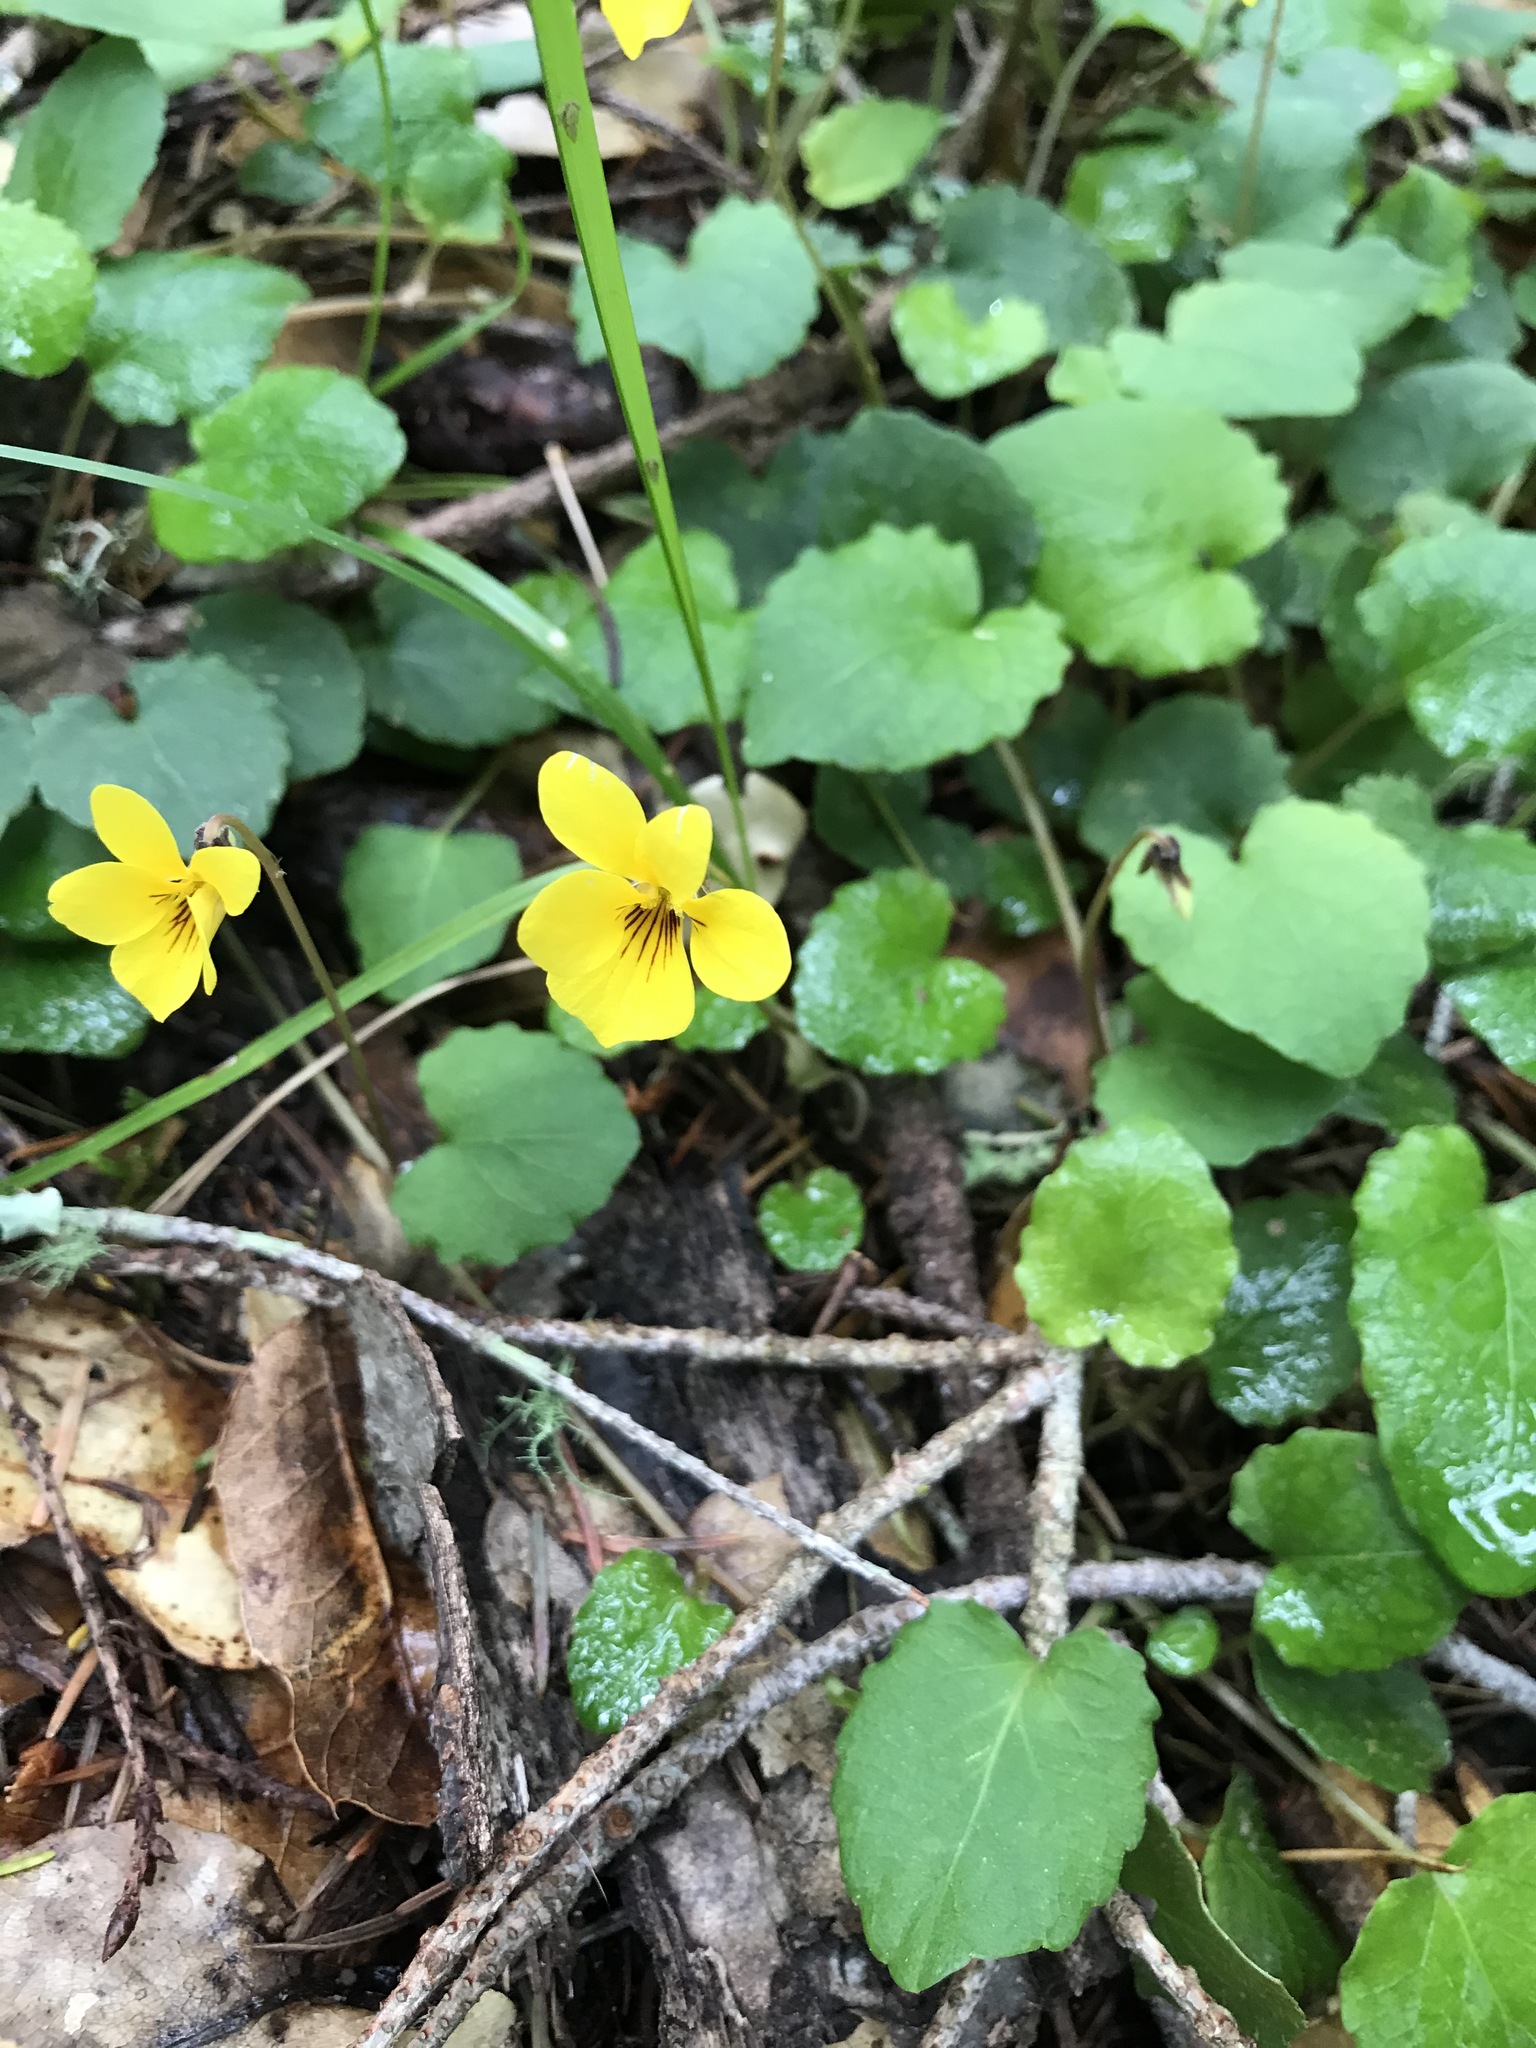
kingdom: Plantae
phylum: Tracheophyta
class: Magnoliopsida
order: Malpighiales
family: Violaceae
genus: Viola
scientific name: Viola sempervirens
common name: Evergreen violet
